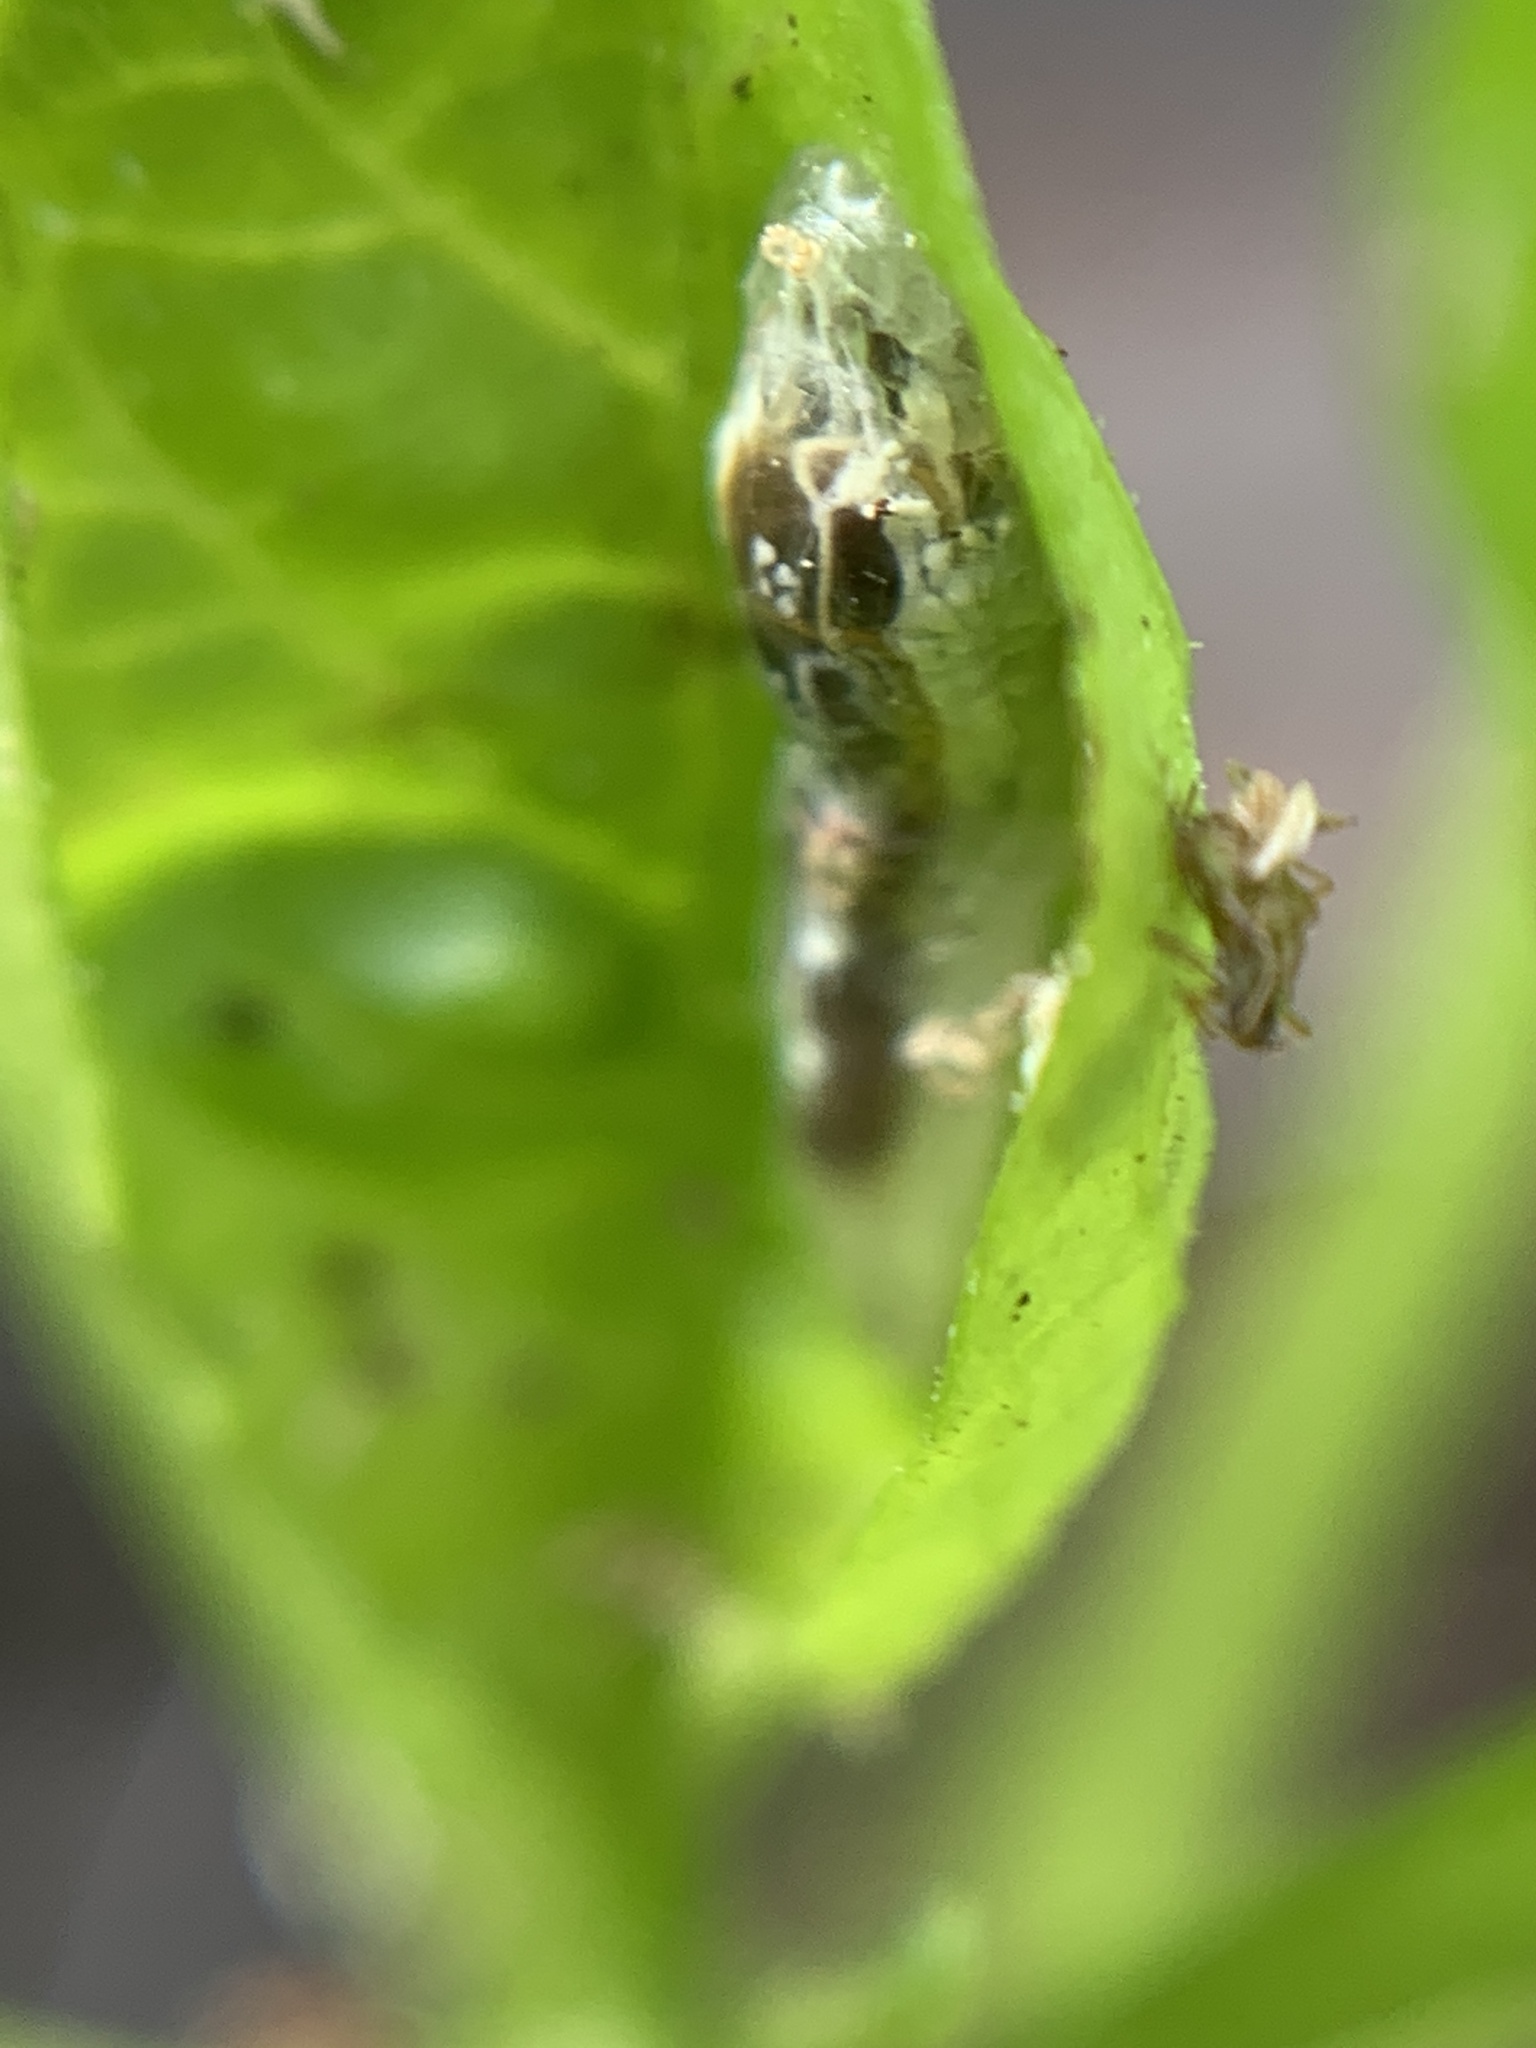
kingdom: Animalia
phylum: Arthropoda
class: Insecta
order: Diptera
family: Syrphidae
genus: Episyrphus
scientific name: Episyrphus balteatus
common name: Marmalade hoverfly
